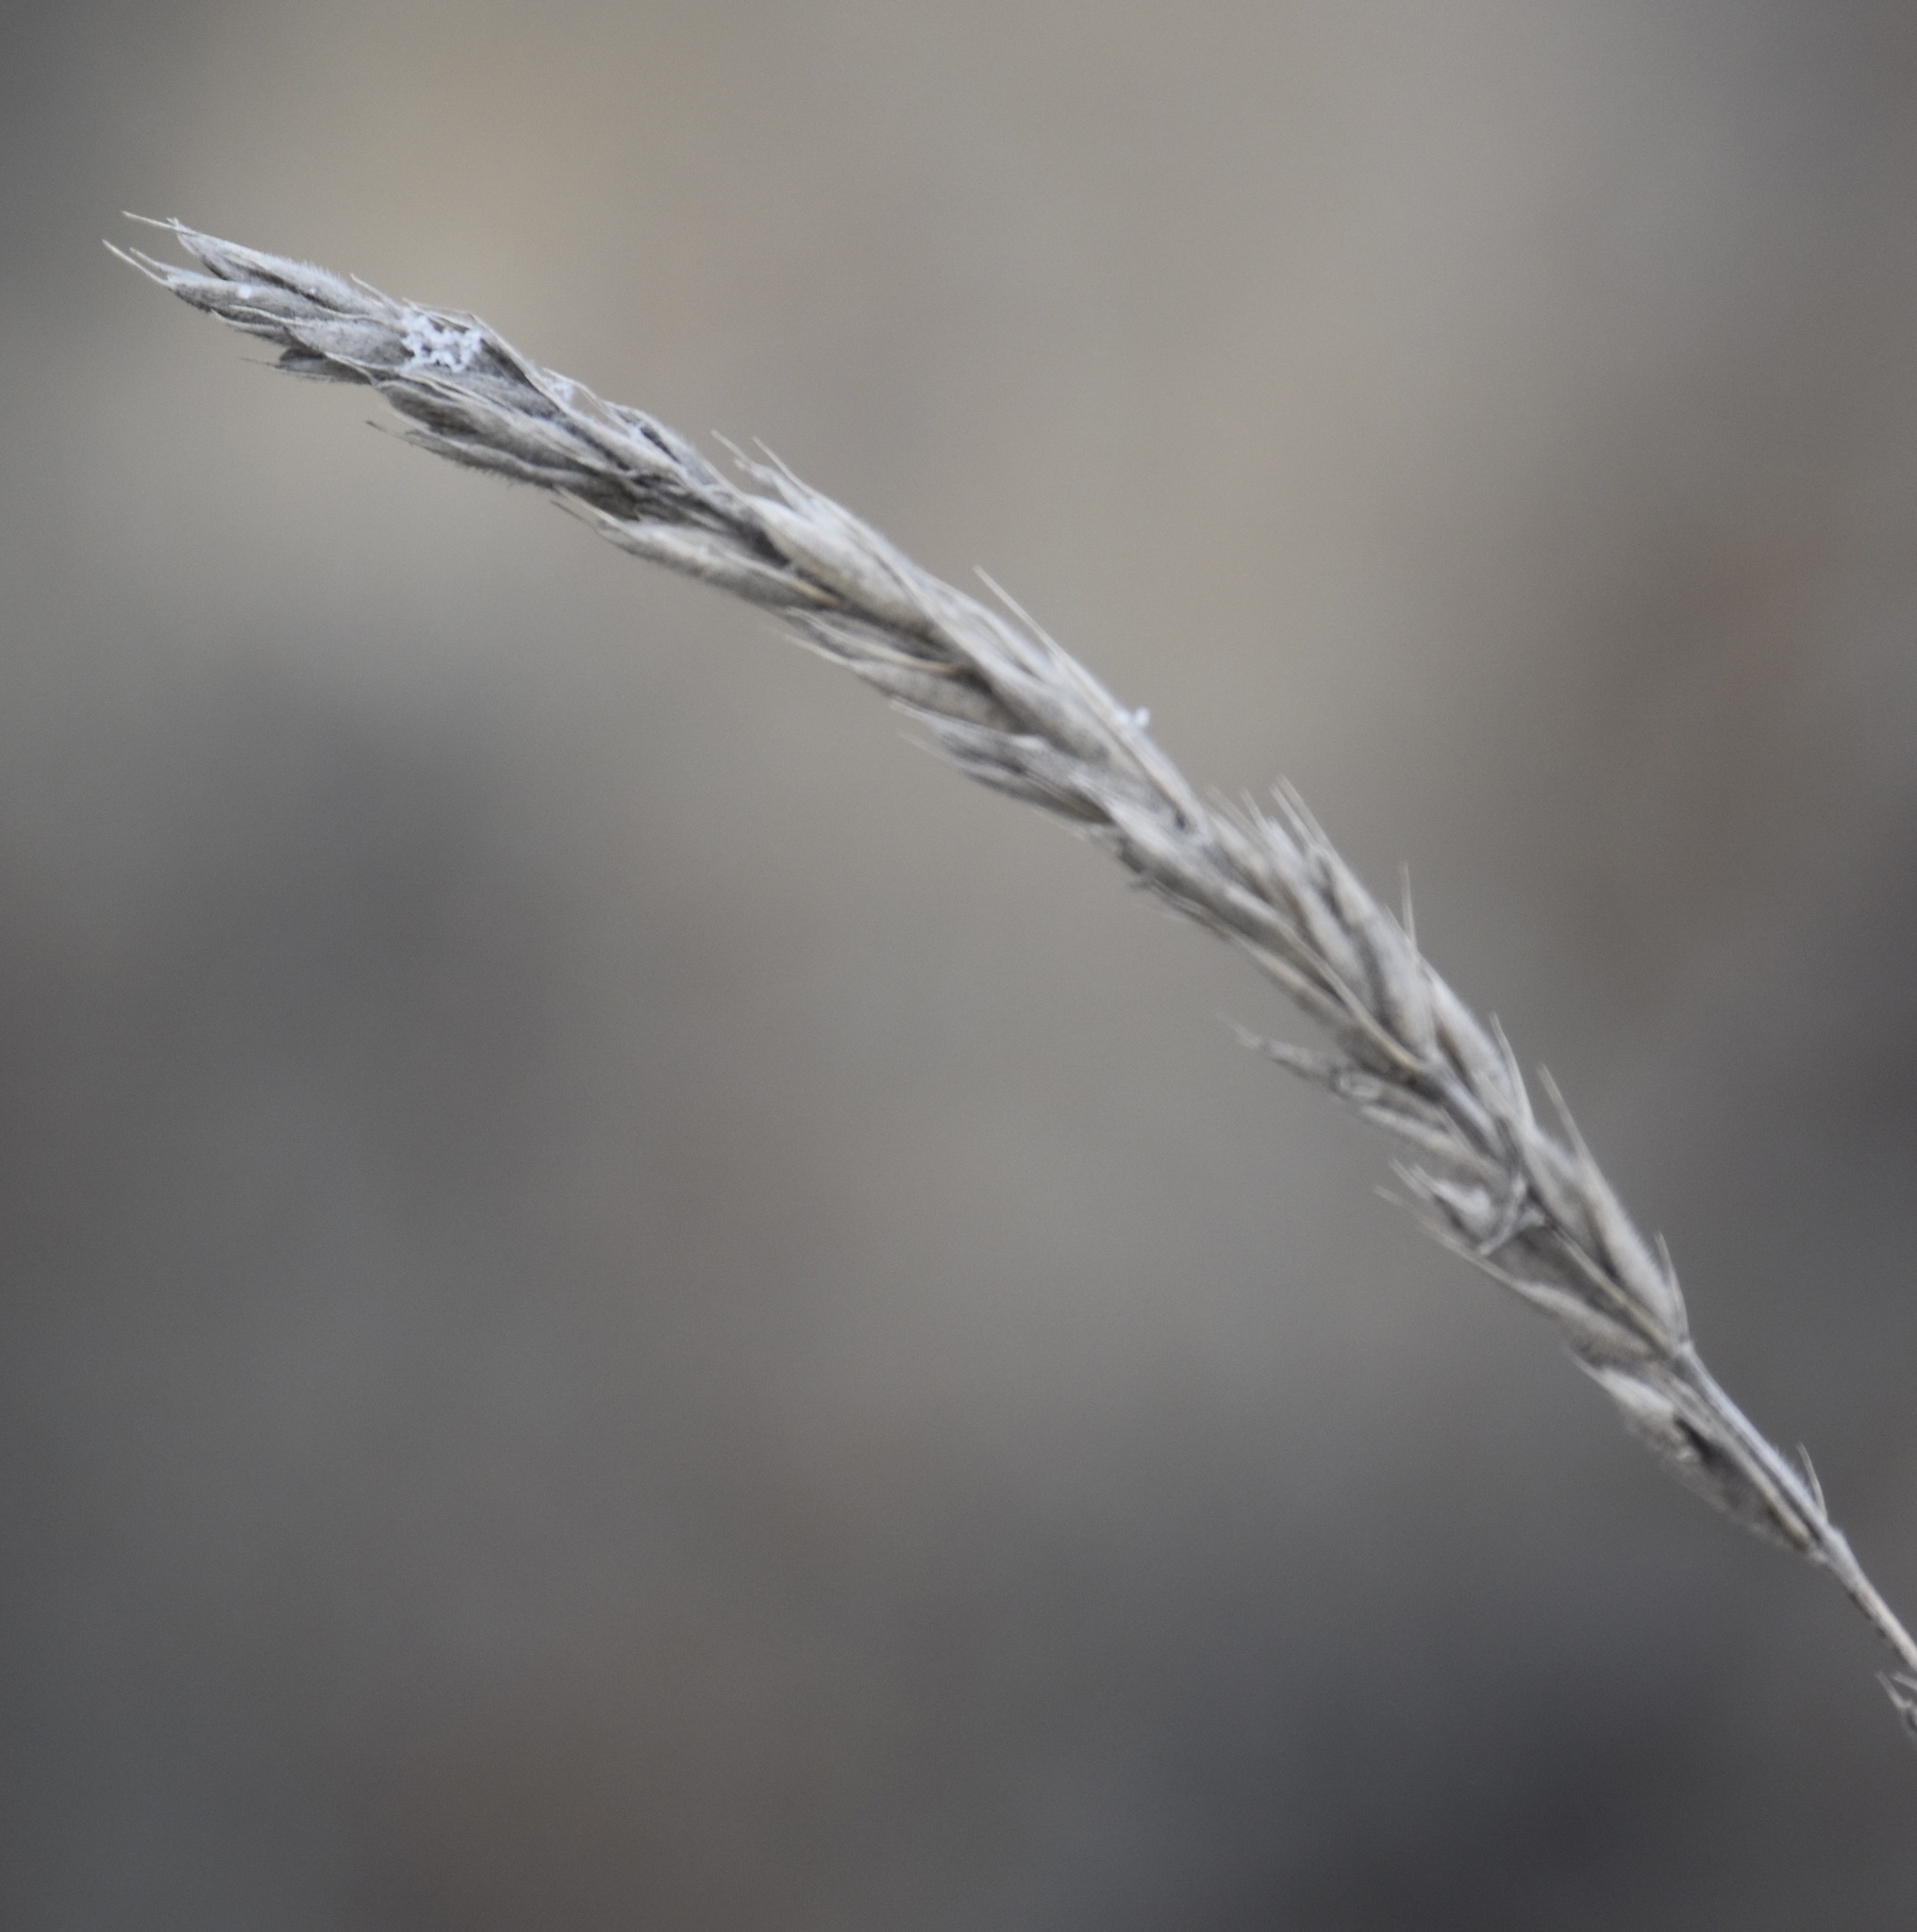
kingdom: Plantae
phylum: Tracheophyta
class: Liliopsida
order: Poales
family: Poaceae
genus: Leymus
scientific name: Leymus innovatus
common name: Boreal wild rye
